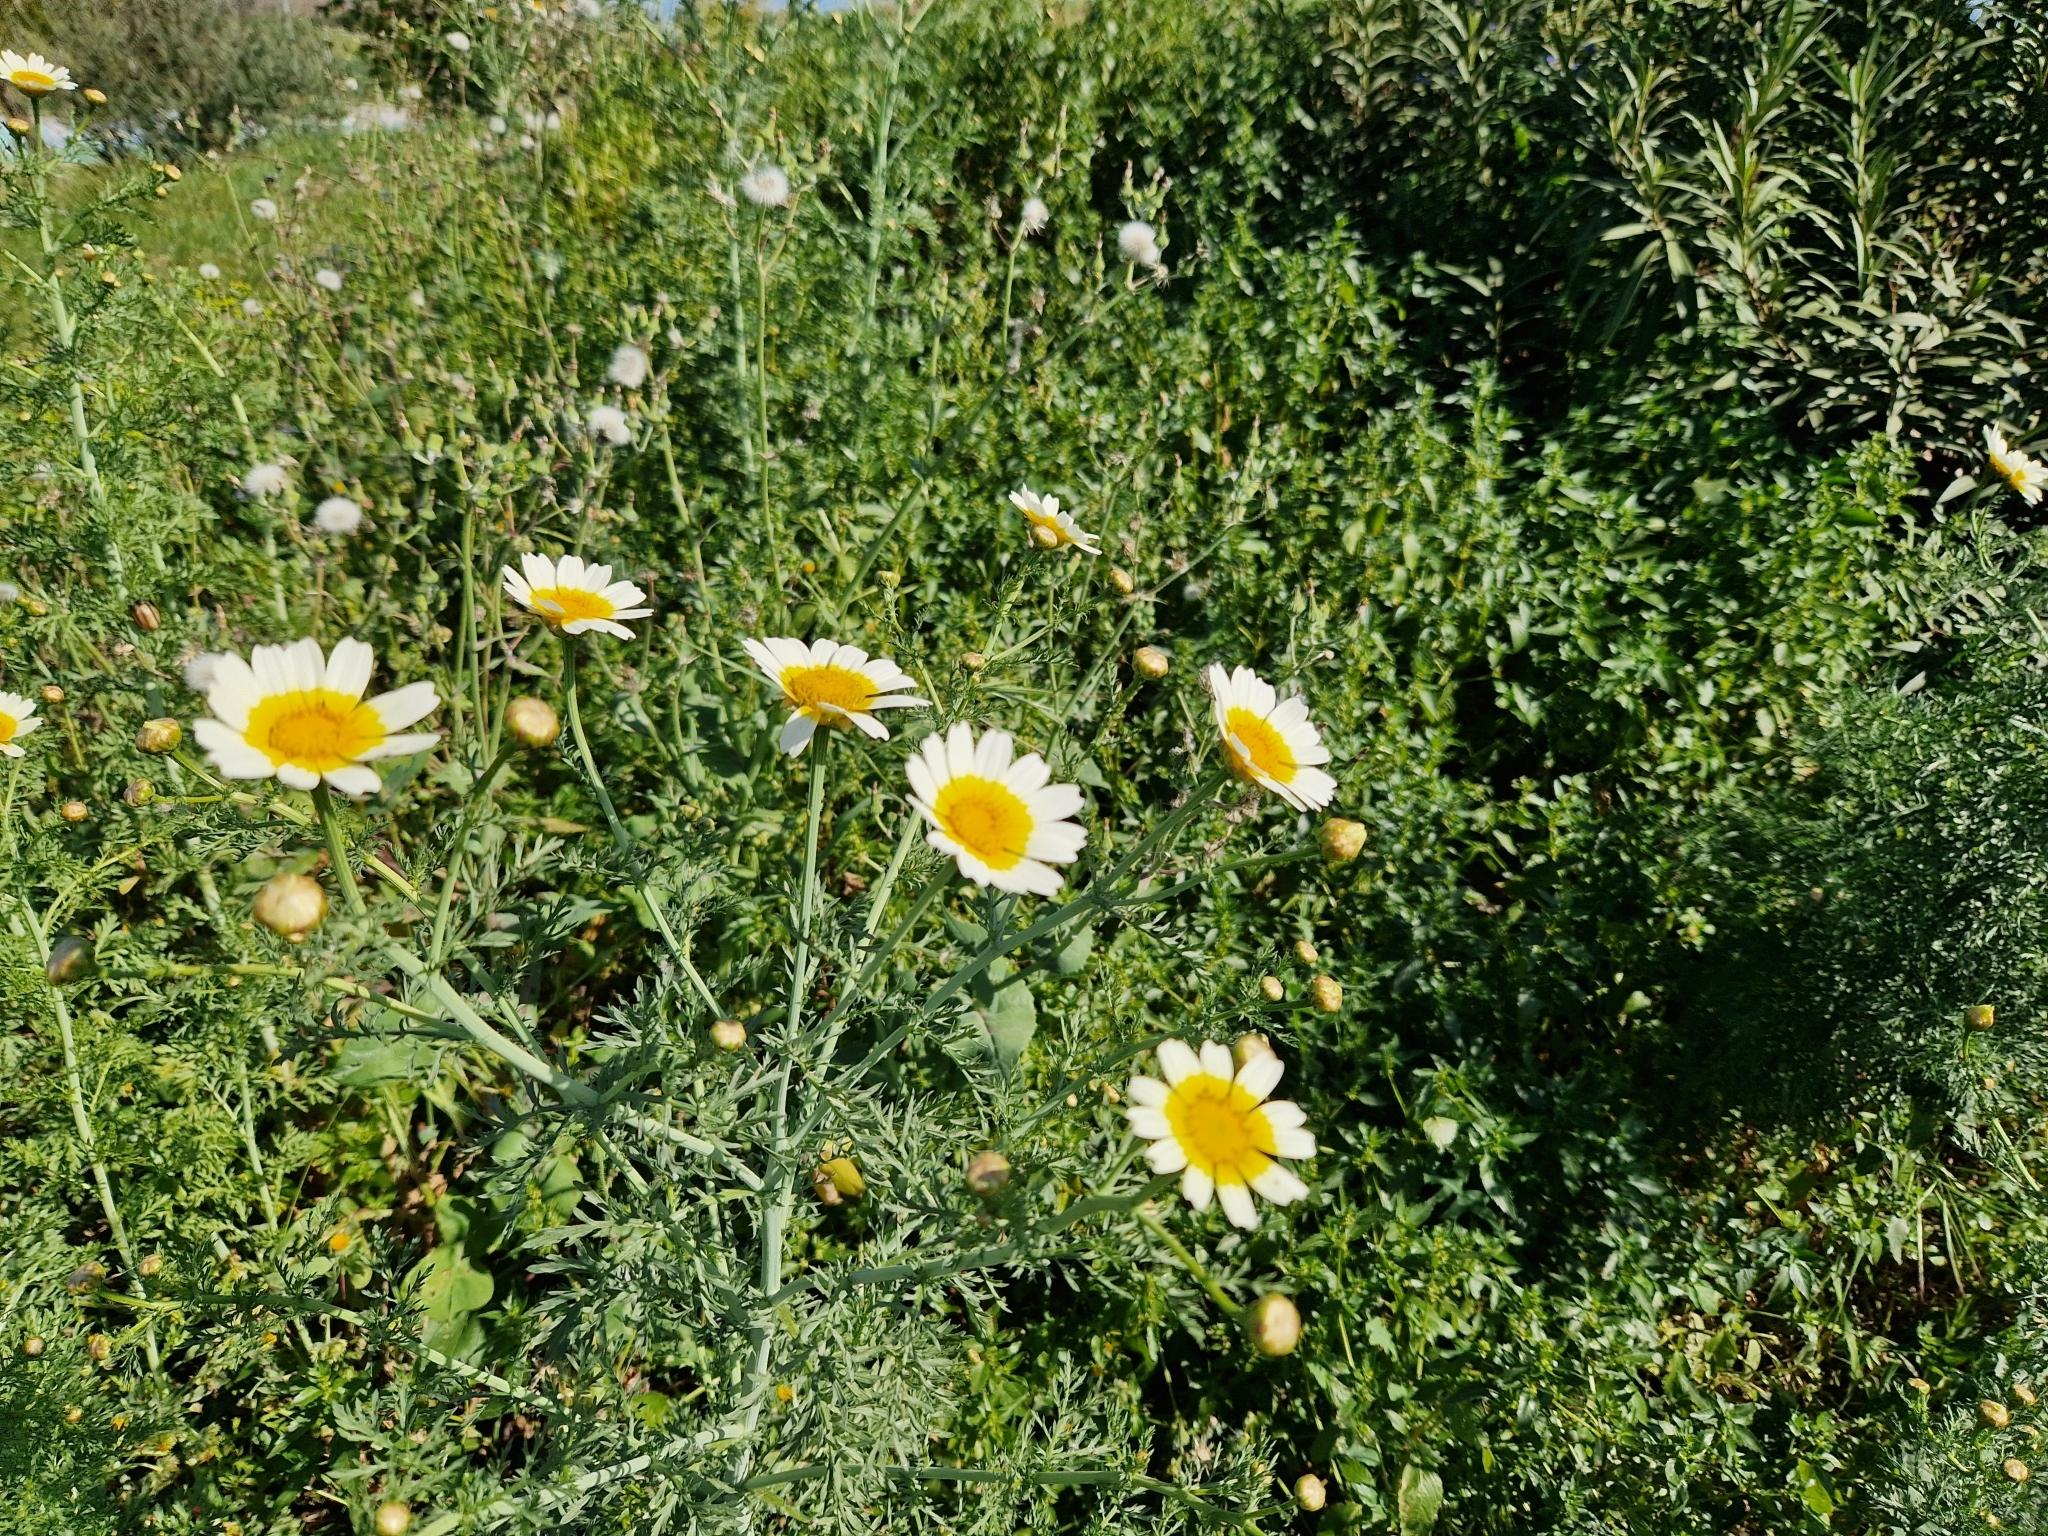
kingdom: Plantae
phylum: Tracheophyta
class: Magnoliopsida
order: Asterales
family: Asteraceae
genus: Glebionis
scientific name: Glebionis coronaria
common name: Crowndaisy
